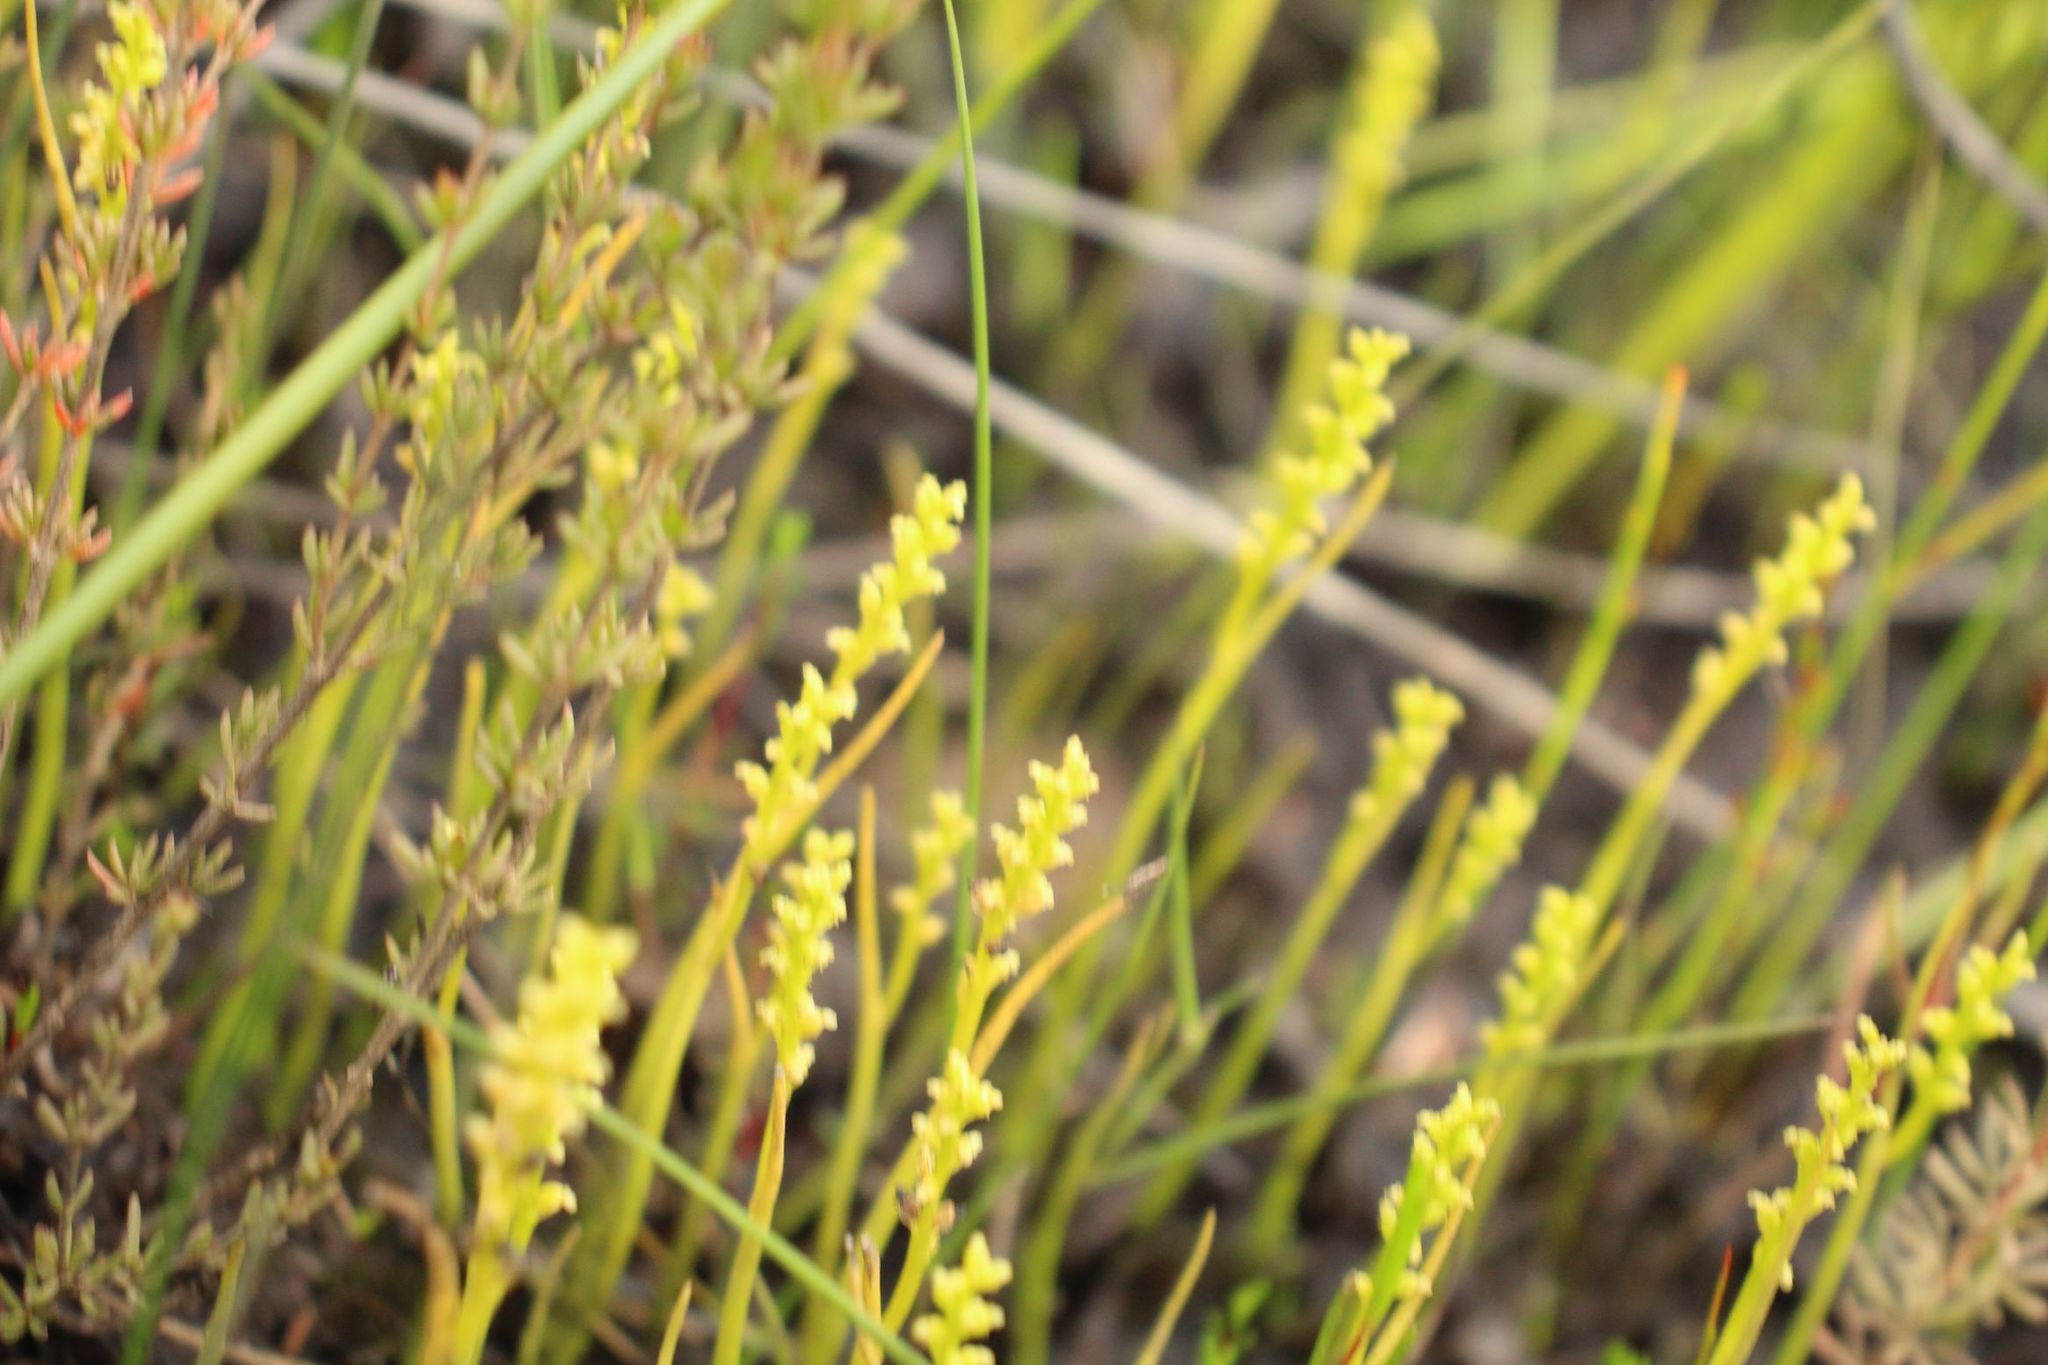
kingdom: Plantae
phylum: Tracheophyta
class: Liliopsida
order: Asparagales
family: Orchidaceae
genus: Microtis
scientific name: Microtis atrata
